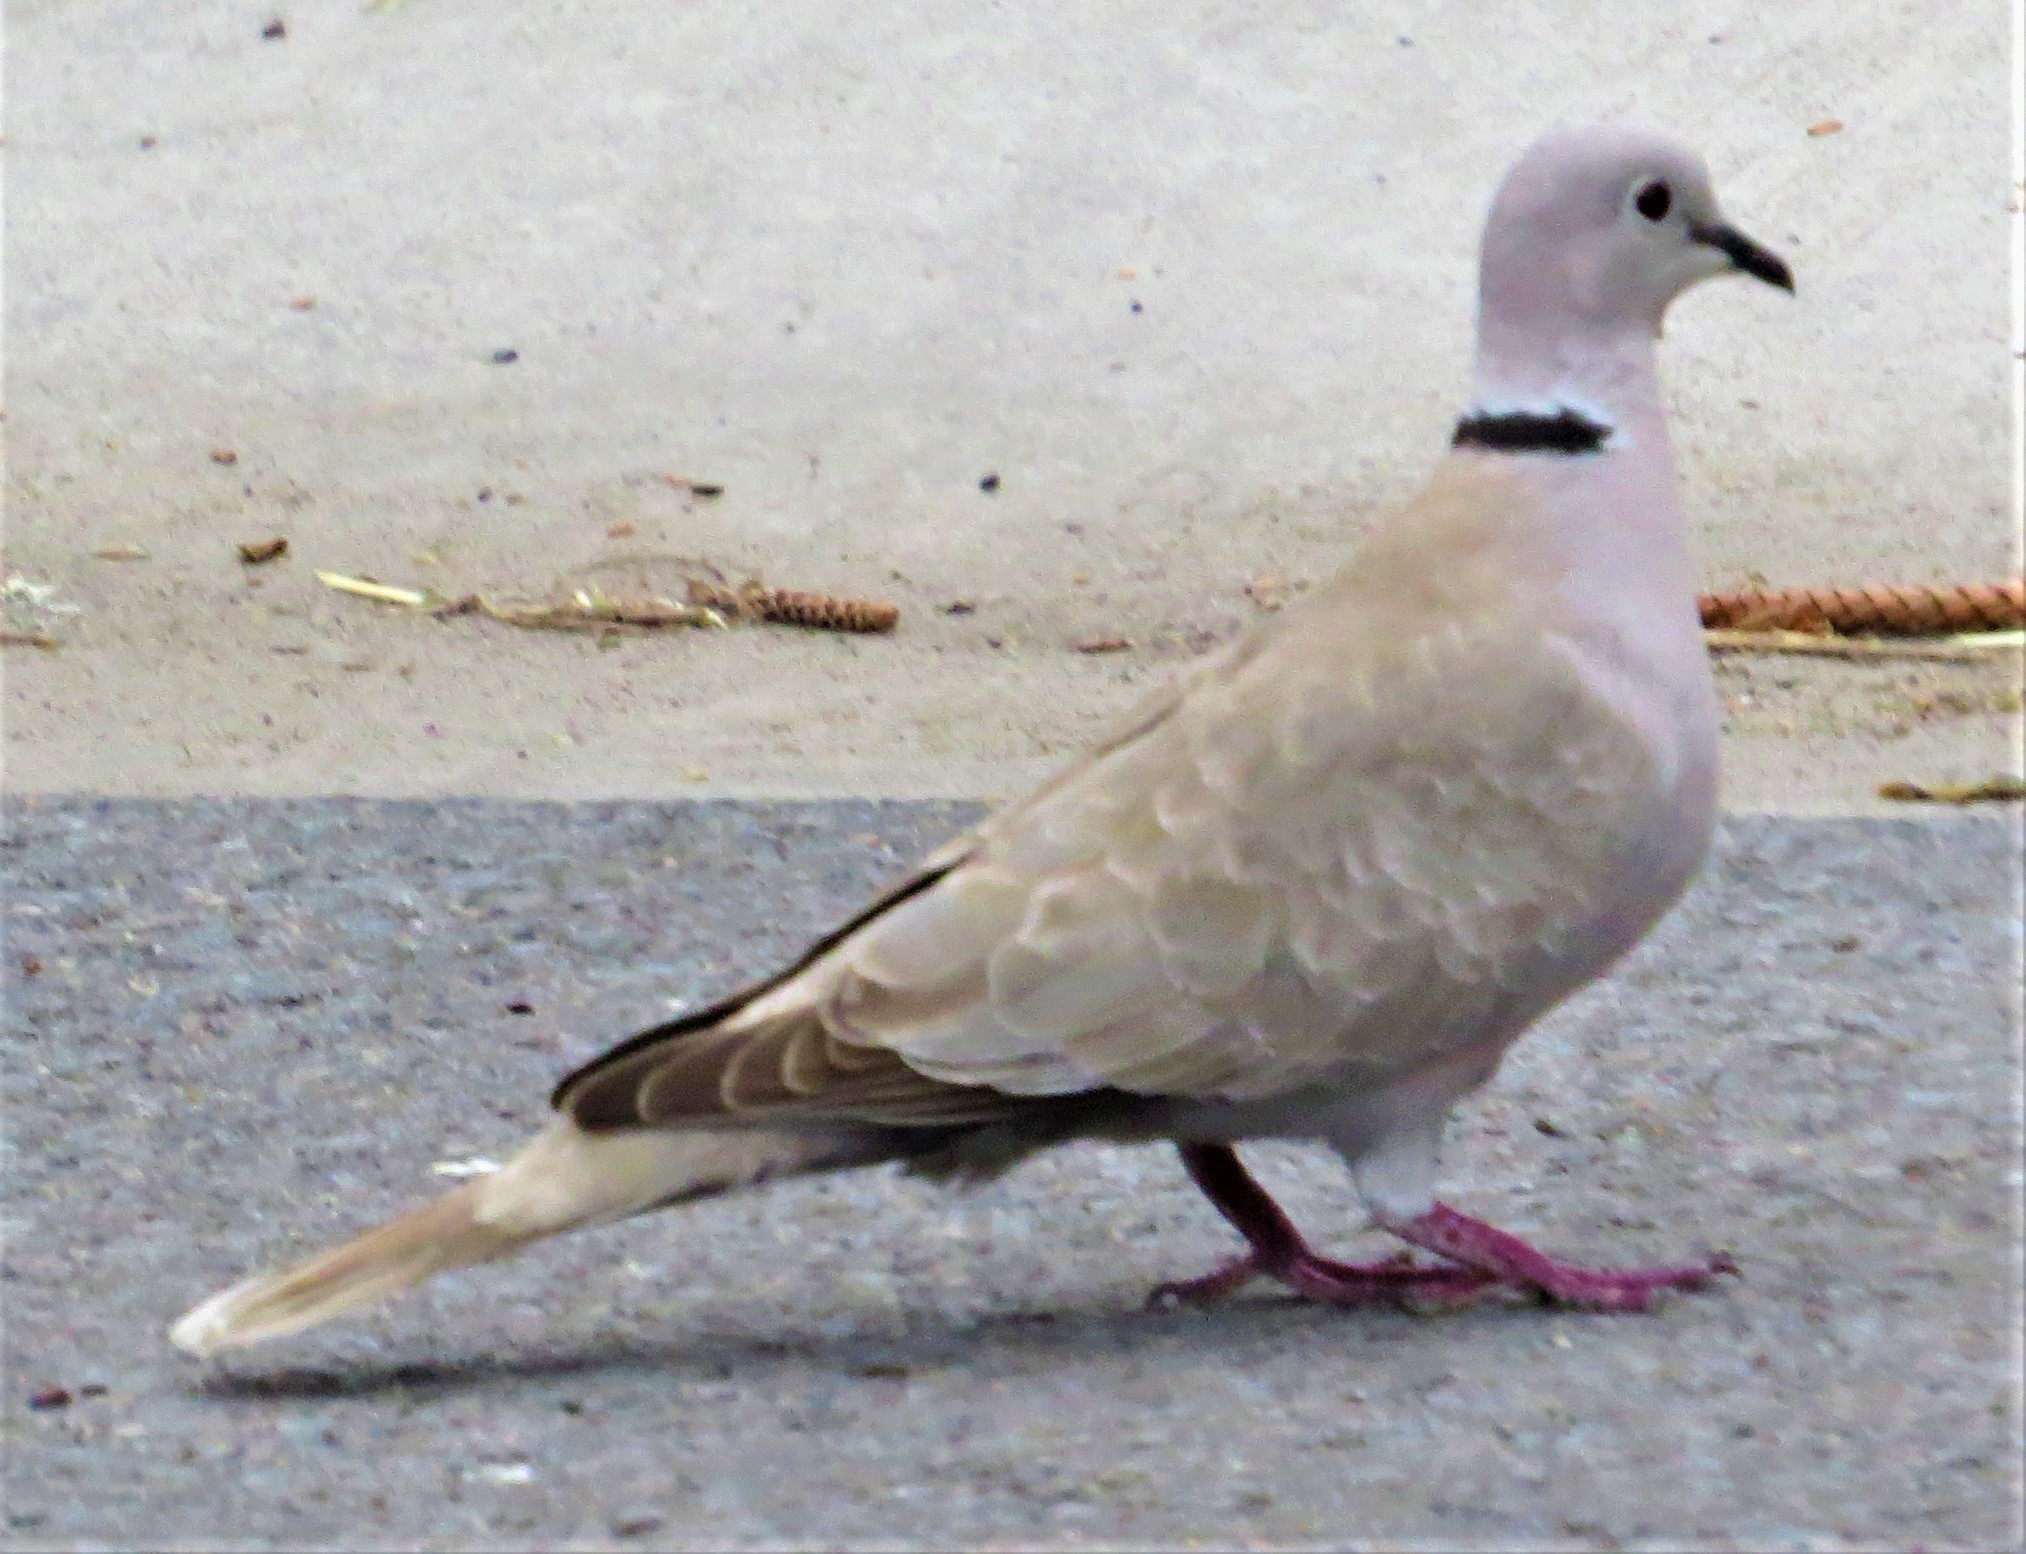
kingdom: Animalia
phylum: Chordata
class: Aves
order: Columbiformes
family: Columbidae
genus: Streptopelia
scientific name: Streptopelia decaocto
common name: Eurasian collared dove
